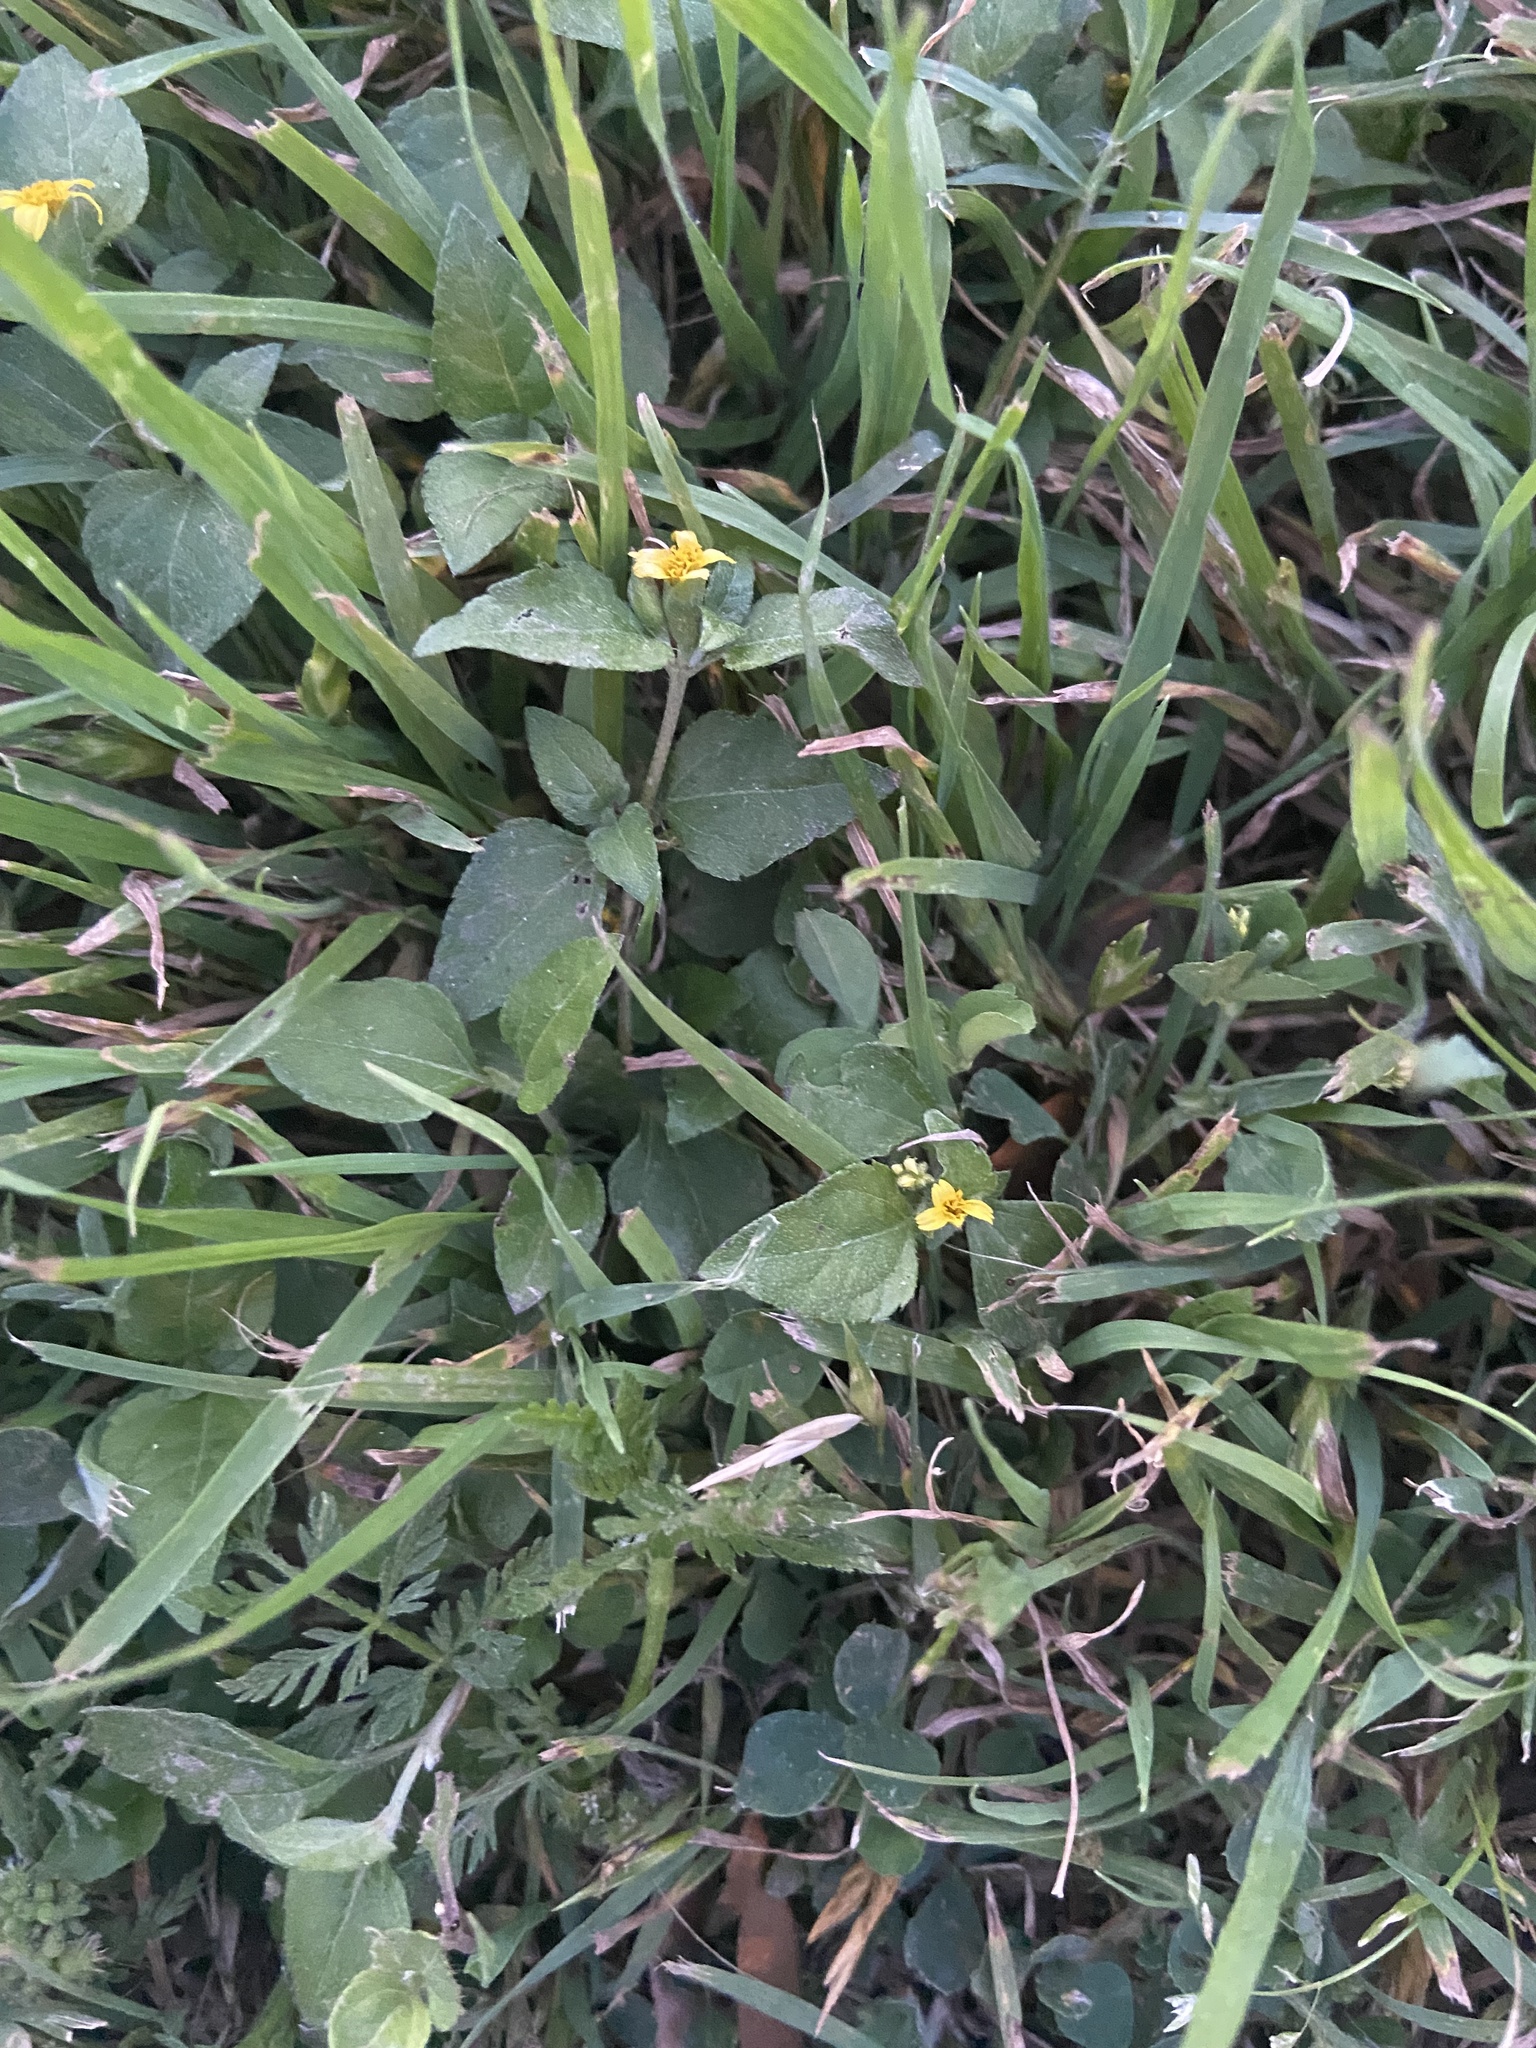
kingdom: Plantae
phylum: Tracheophyta
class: Magnoliopsida
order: Asterales
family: Asteraceae
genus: Calyptocarpus
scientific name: Calyptocarpus vialis
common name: Straggler daisy
